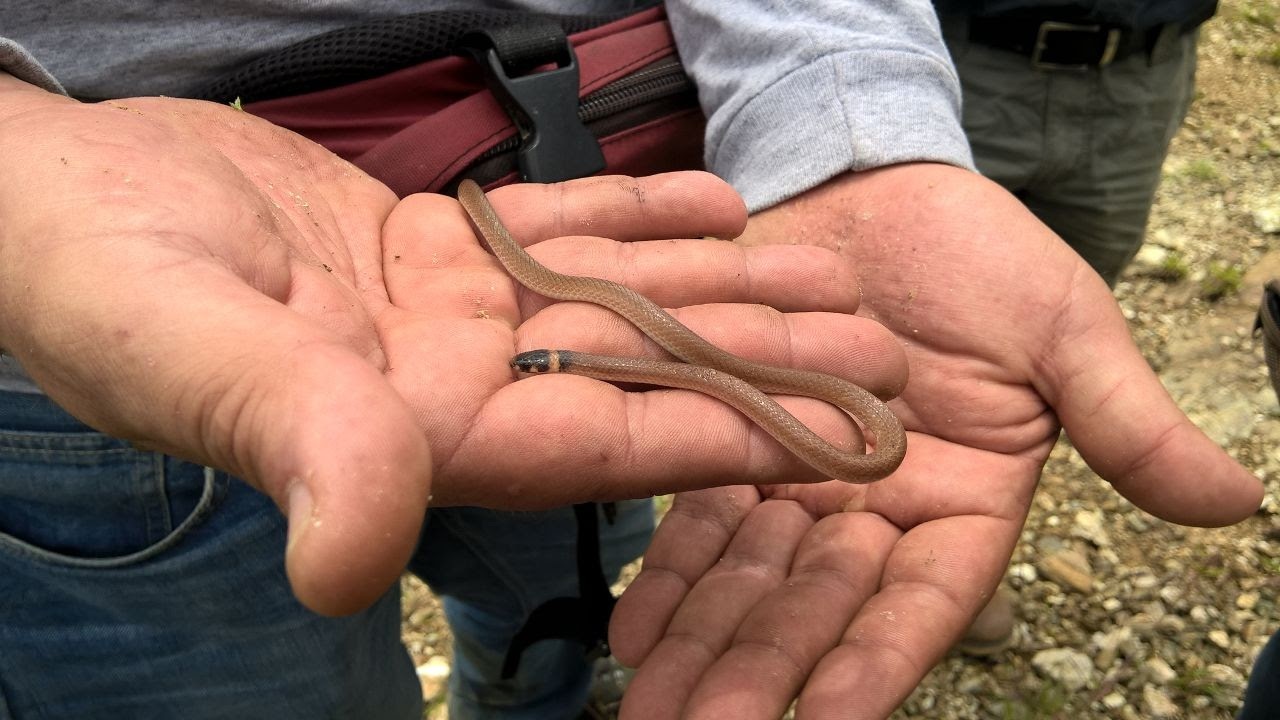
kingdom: Animalia
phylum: Chordata
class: Squamata
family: Colubridae
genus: Tantilla
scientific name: Tantilla bocourti
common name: Bocourt's black-headed snake
